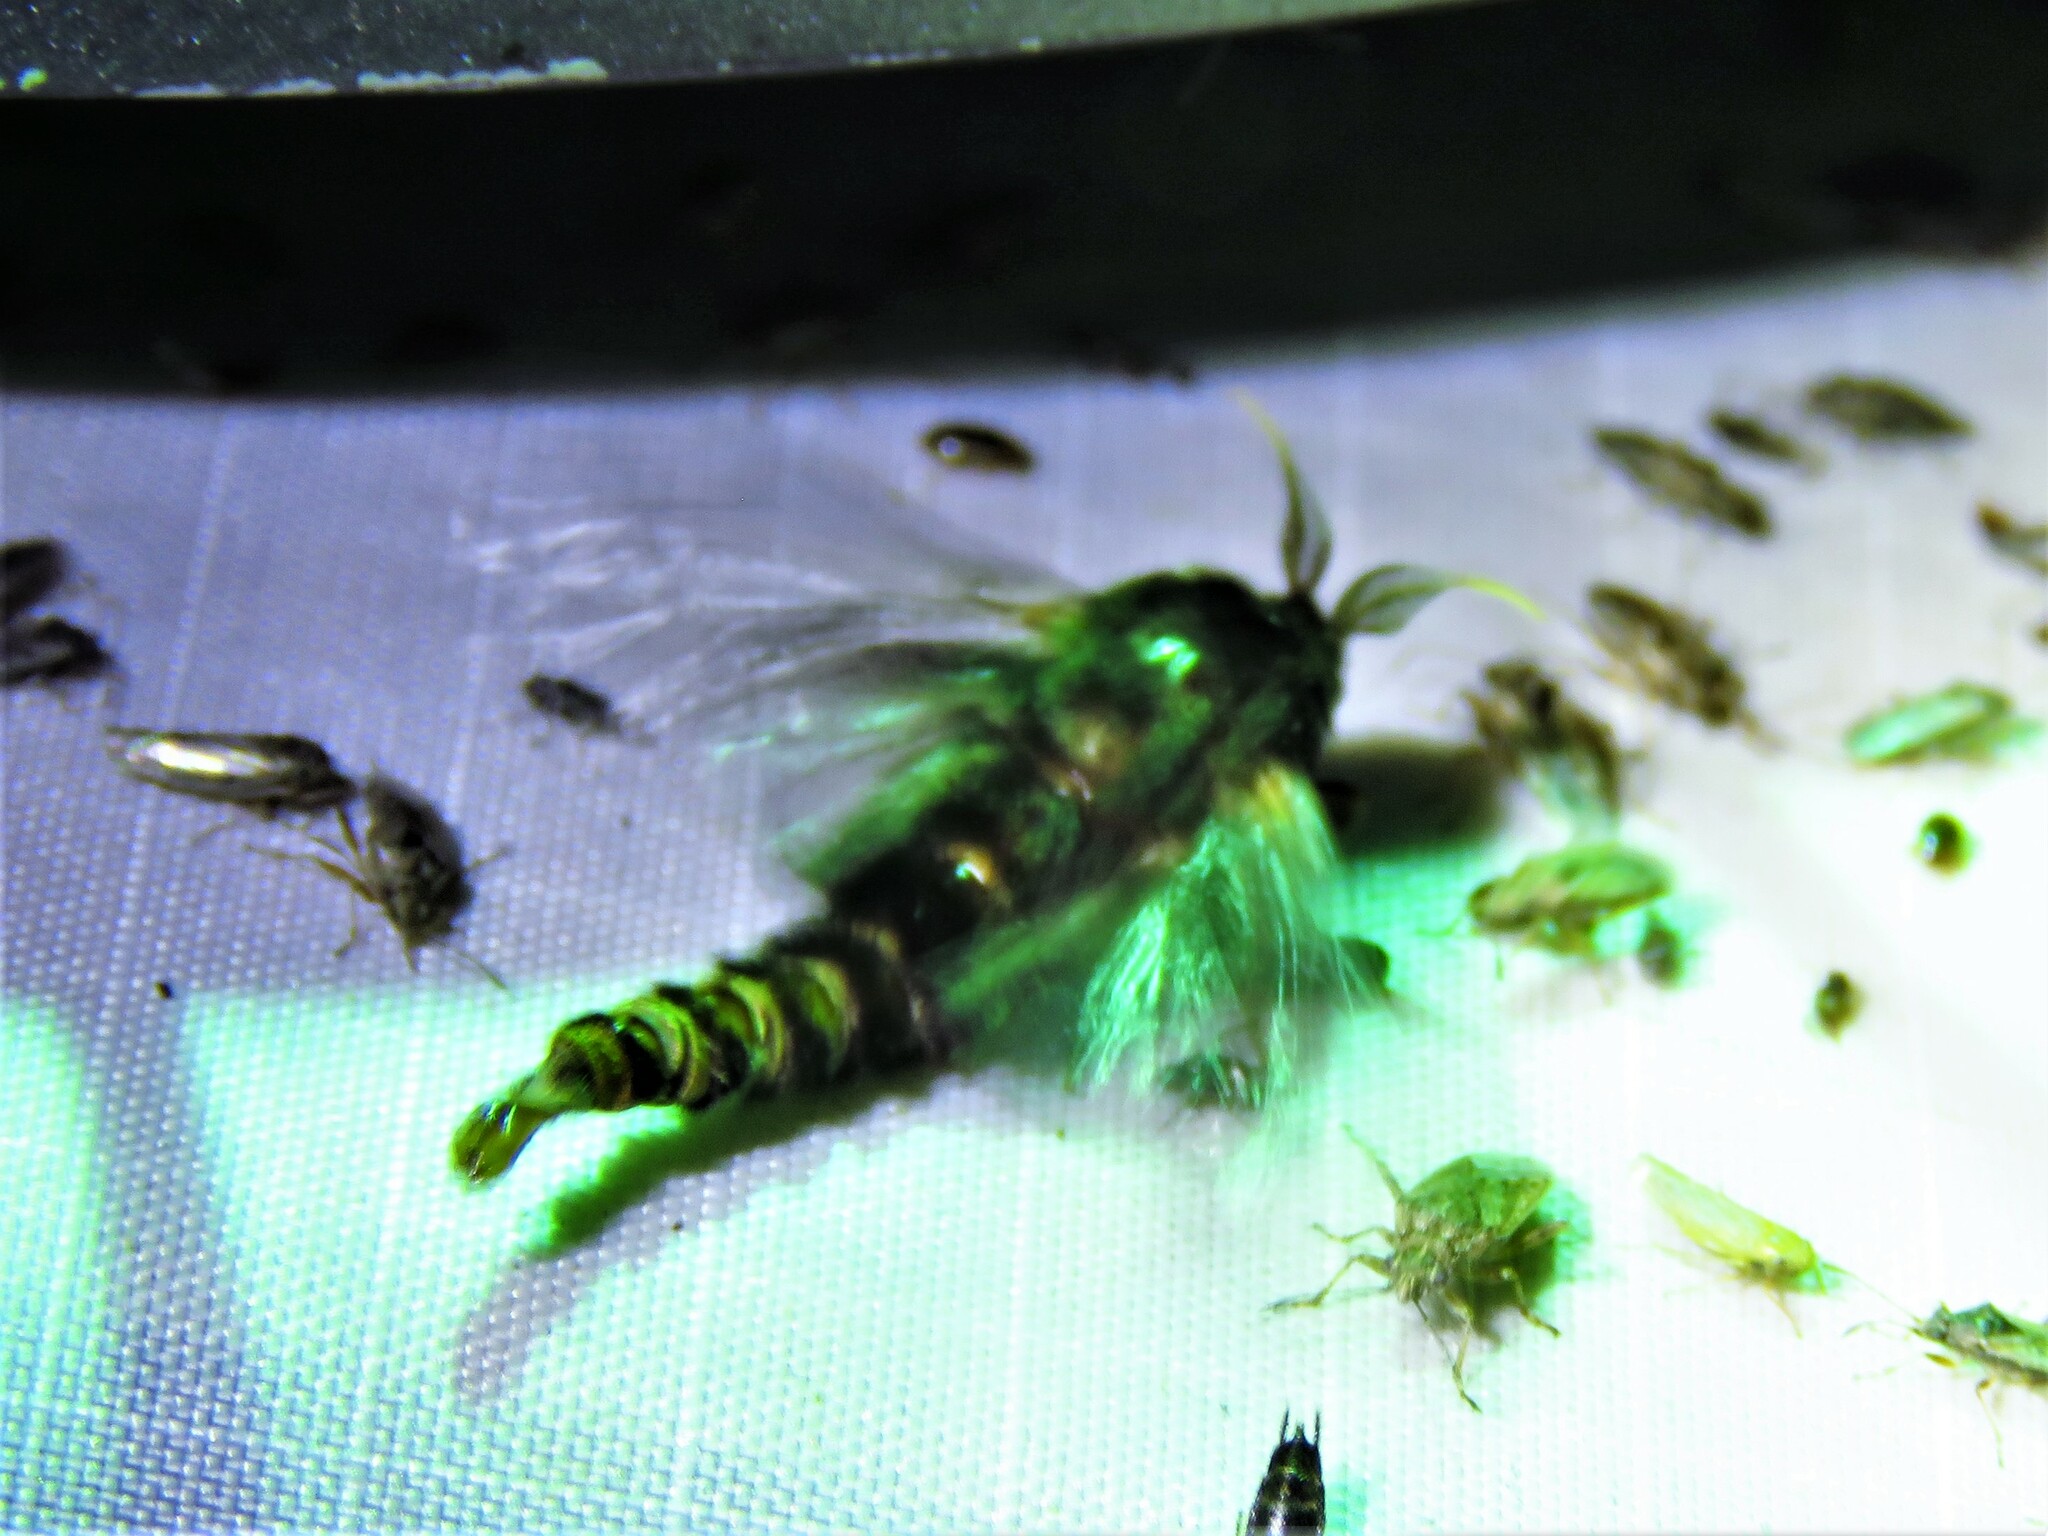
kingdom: Animalia
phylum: Arthropoda
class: Insecta
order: Lepidoptera
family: Psychidae
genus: Thyridopteryx
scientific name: Thyridopteryx ephemeraeformis
